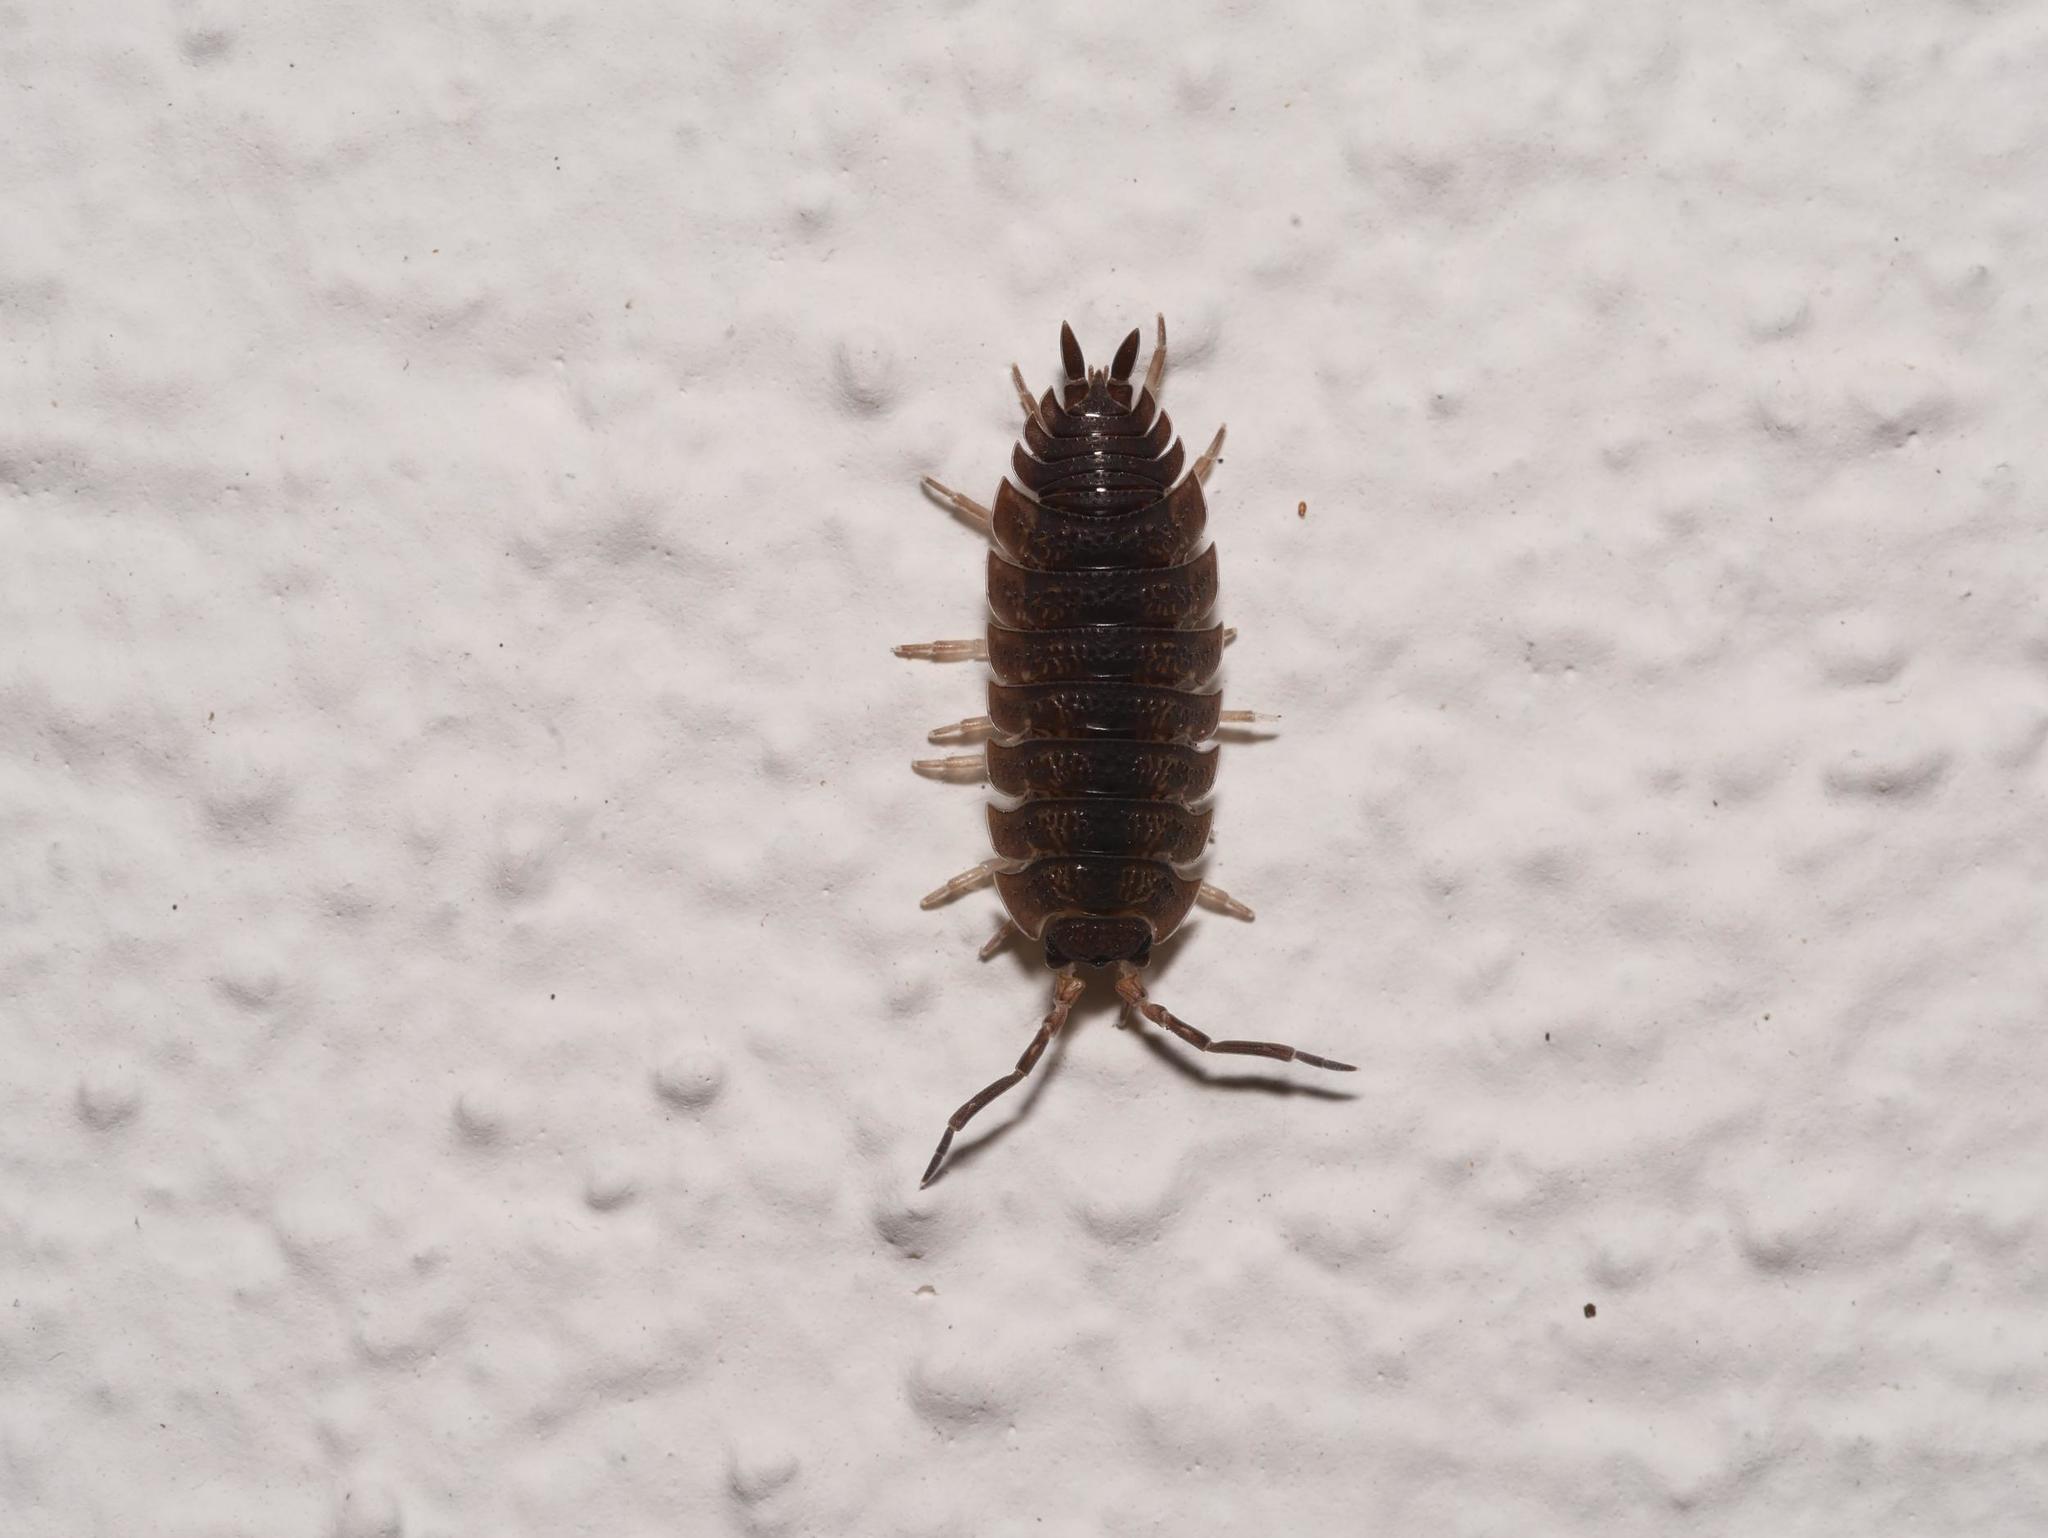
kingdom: Animalia
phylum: Arthropoda
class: Malacostraca
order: Isopoda
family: Porcellionidae
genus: Porcellio
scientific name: Porcellio scaber
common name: Common rough woodlouse
